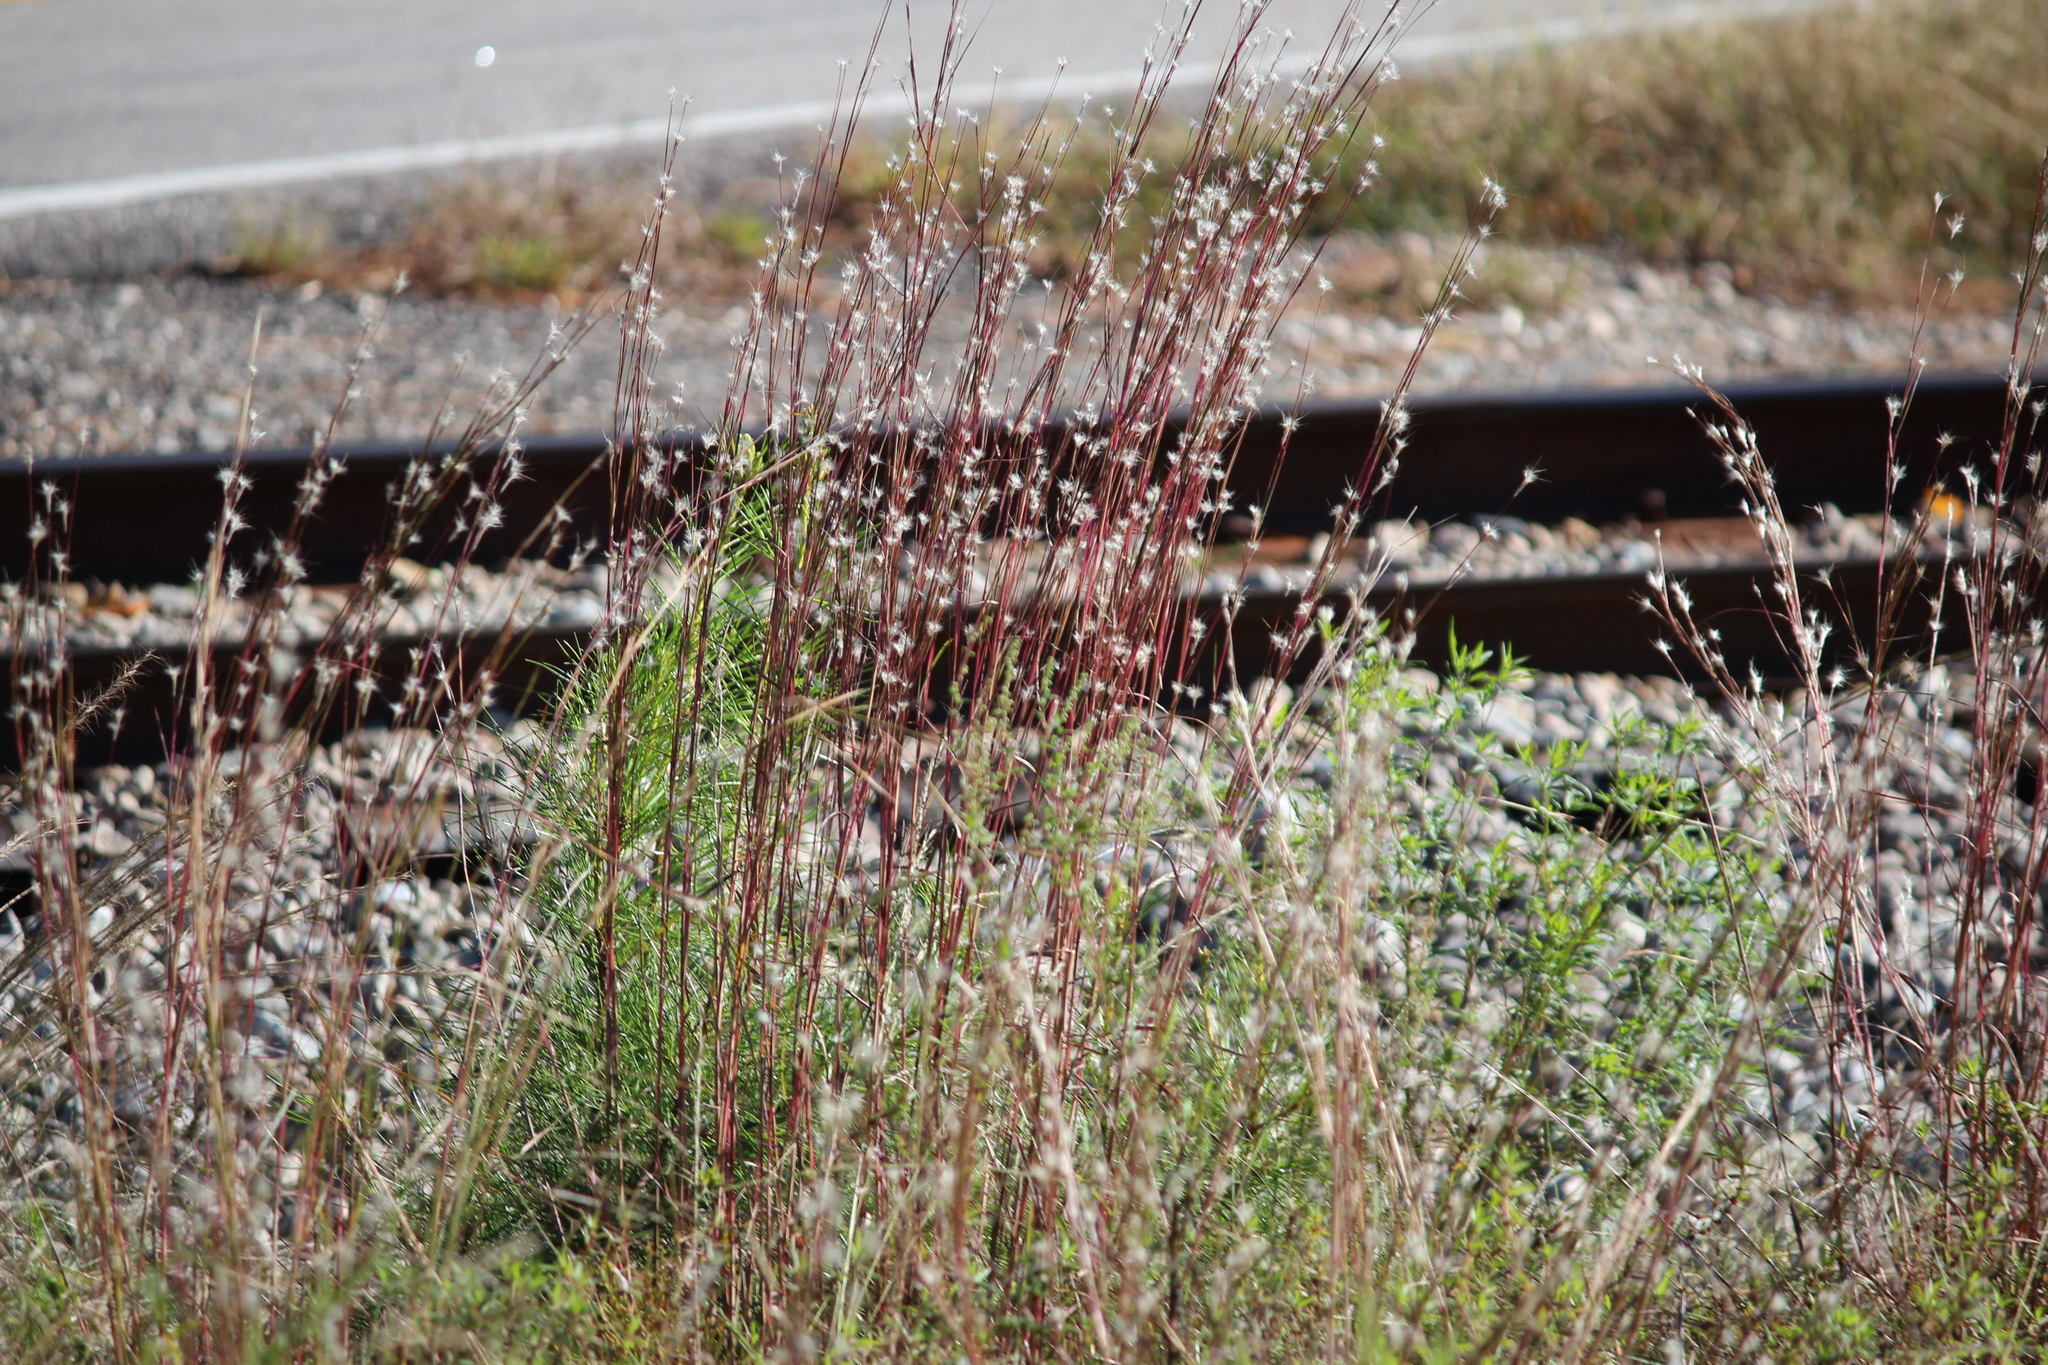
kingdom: Plantae
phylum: Tracheophyta
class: Liliopsida
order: Poales
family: Poaceae
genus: Andropogon
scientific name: Andropogon ternarius
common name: Split bluestem
